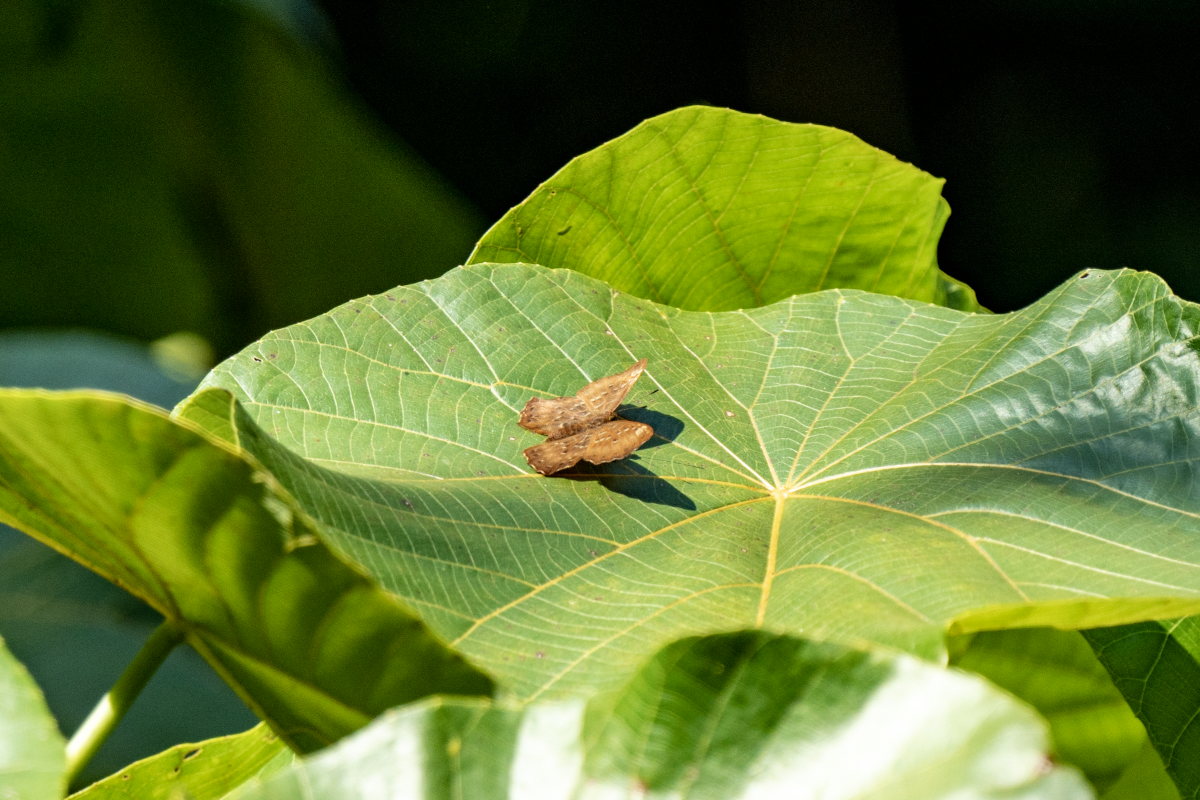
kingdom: Animalia
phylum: Arthropoda
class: Insecta
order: Lepidoptera
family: Riodinidae
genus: Zemeros
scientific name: Zemeros flegyas
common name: Punchinello
